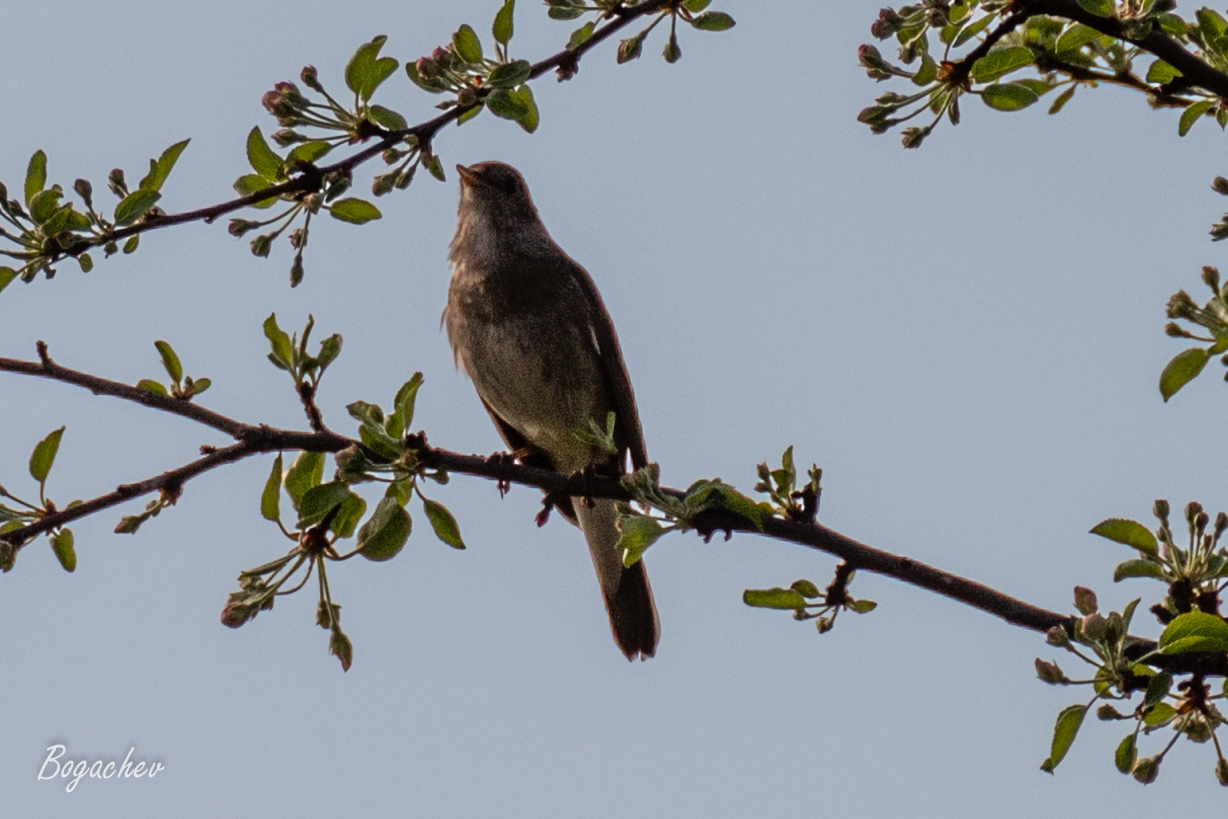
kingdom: Animalia
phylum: Chordata
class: Aves
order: Passeriformes
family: Muscicapidae
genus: Luscinia
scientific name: Luscinia luscinia
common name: Thrush nightingale
